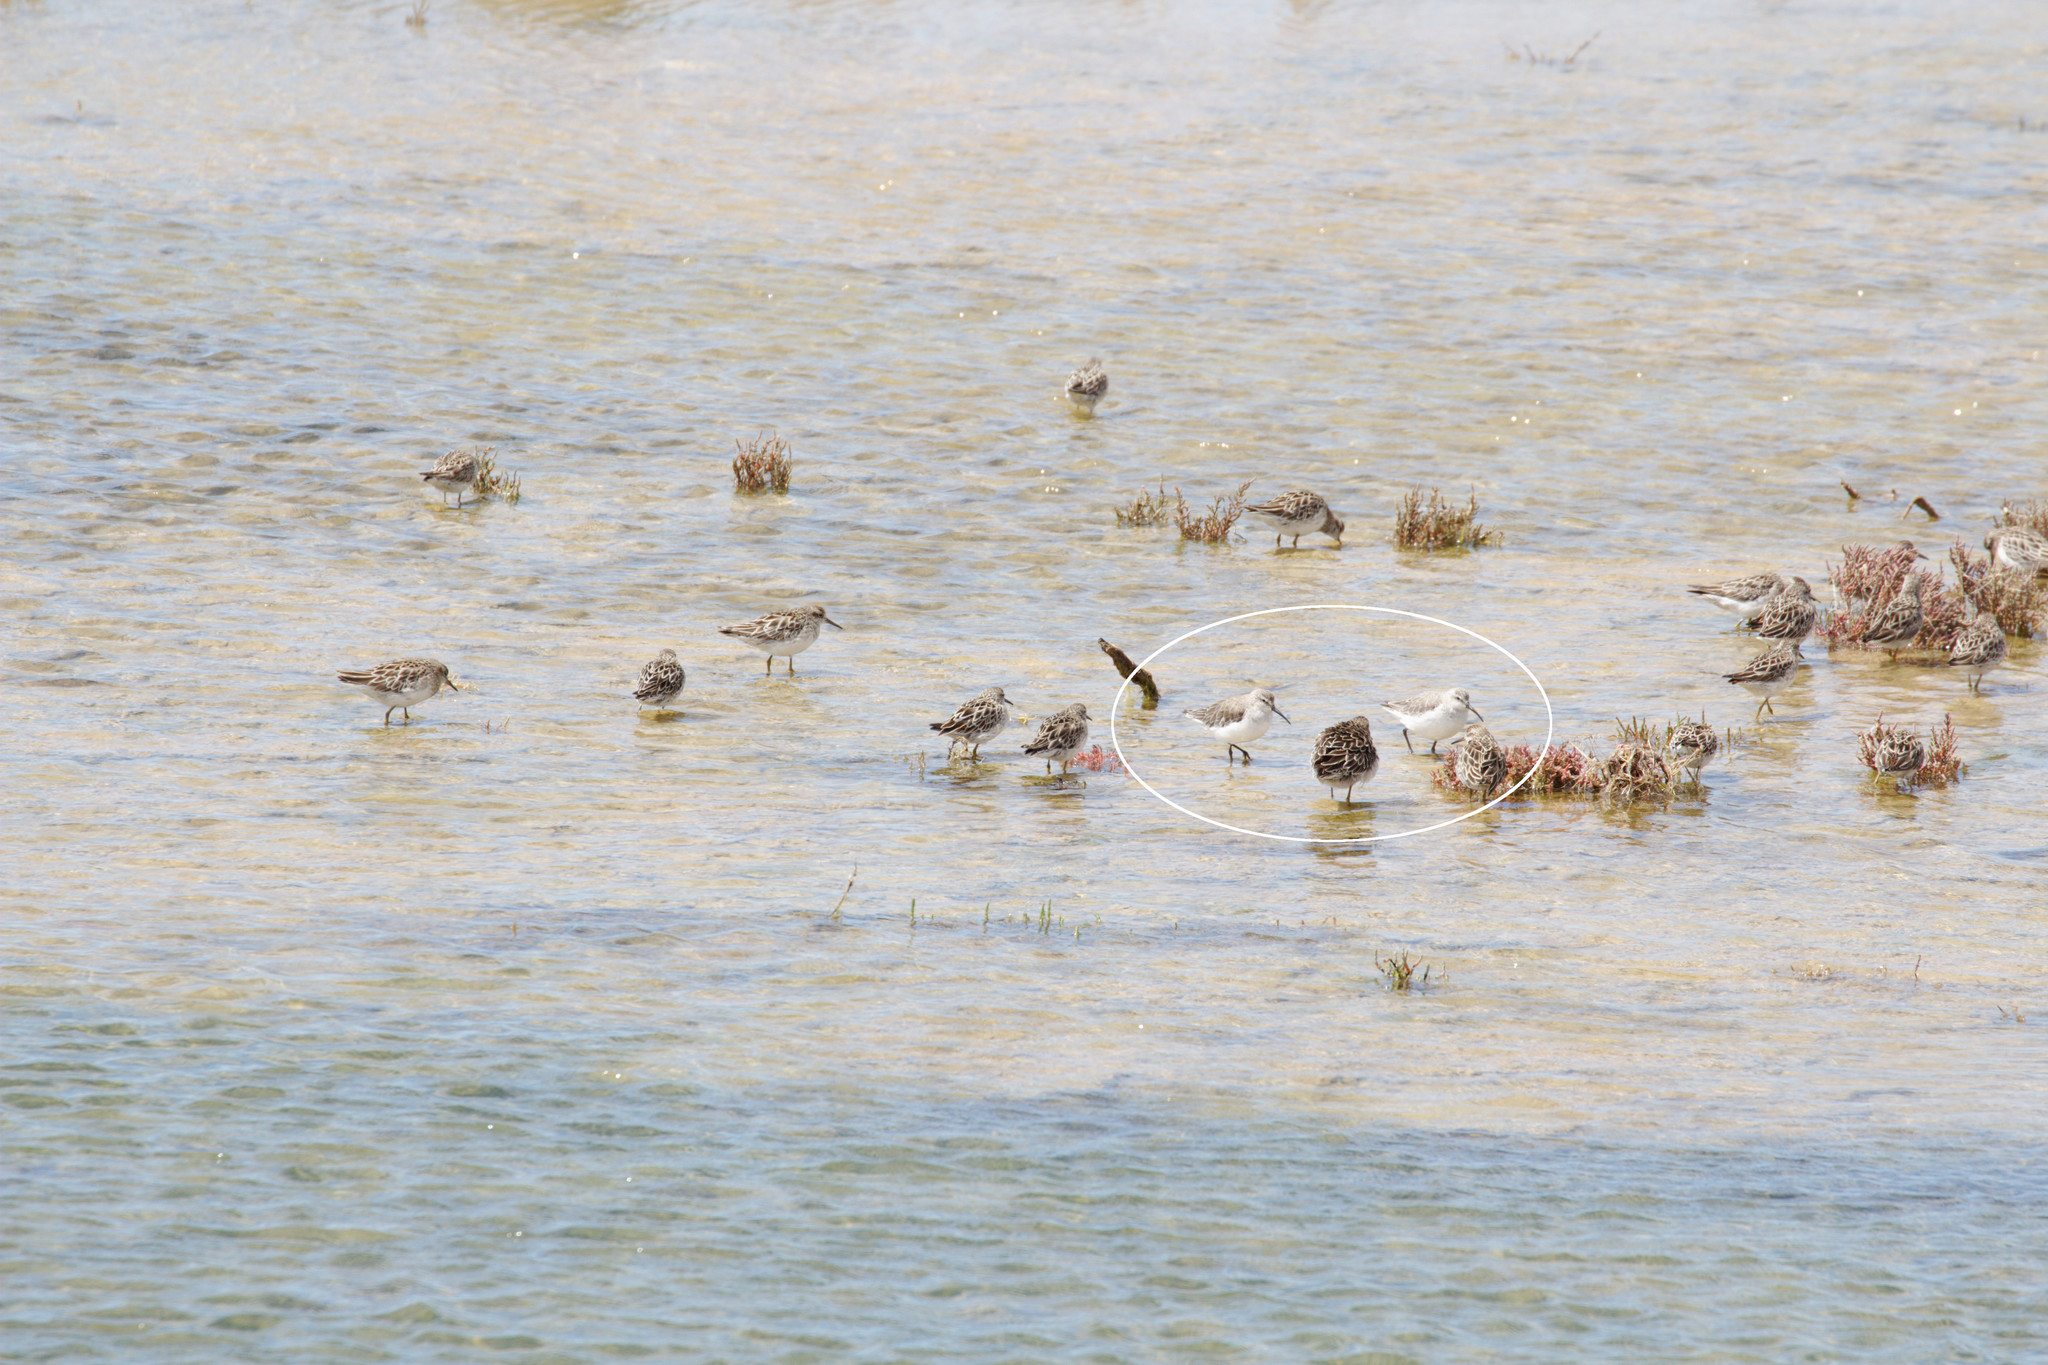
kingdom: Animalia
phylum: Chordata
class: Aves
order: Charadriiformes
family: Scolopacidae
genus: Calidris
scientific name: Calidris ferruginea
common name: Curlew sandpiper
